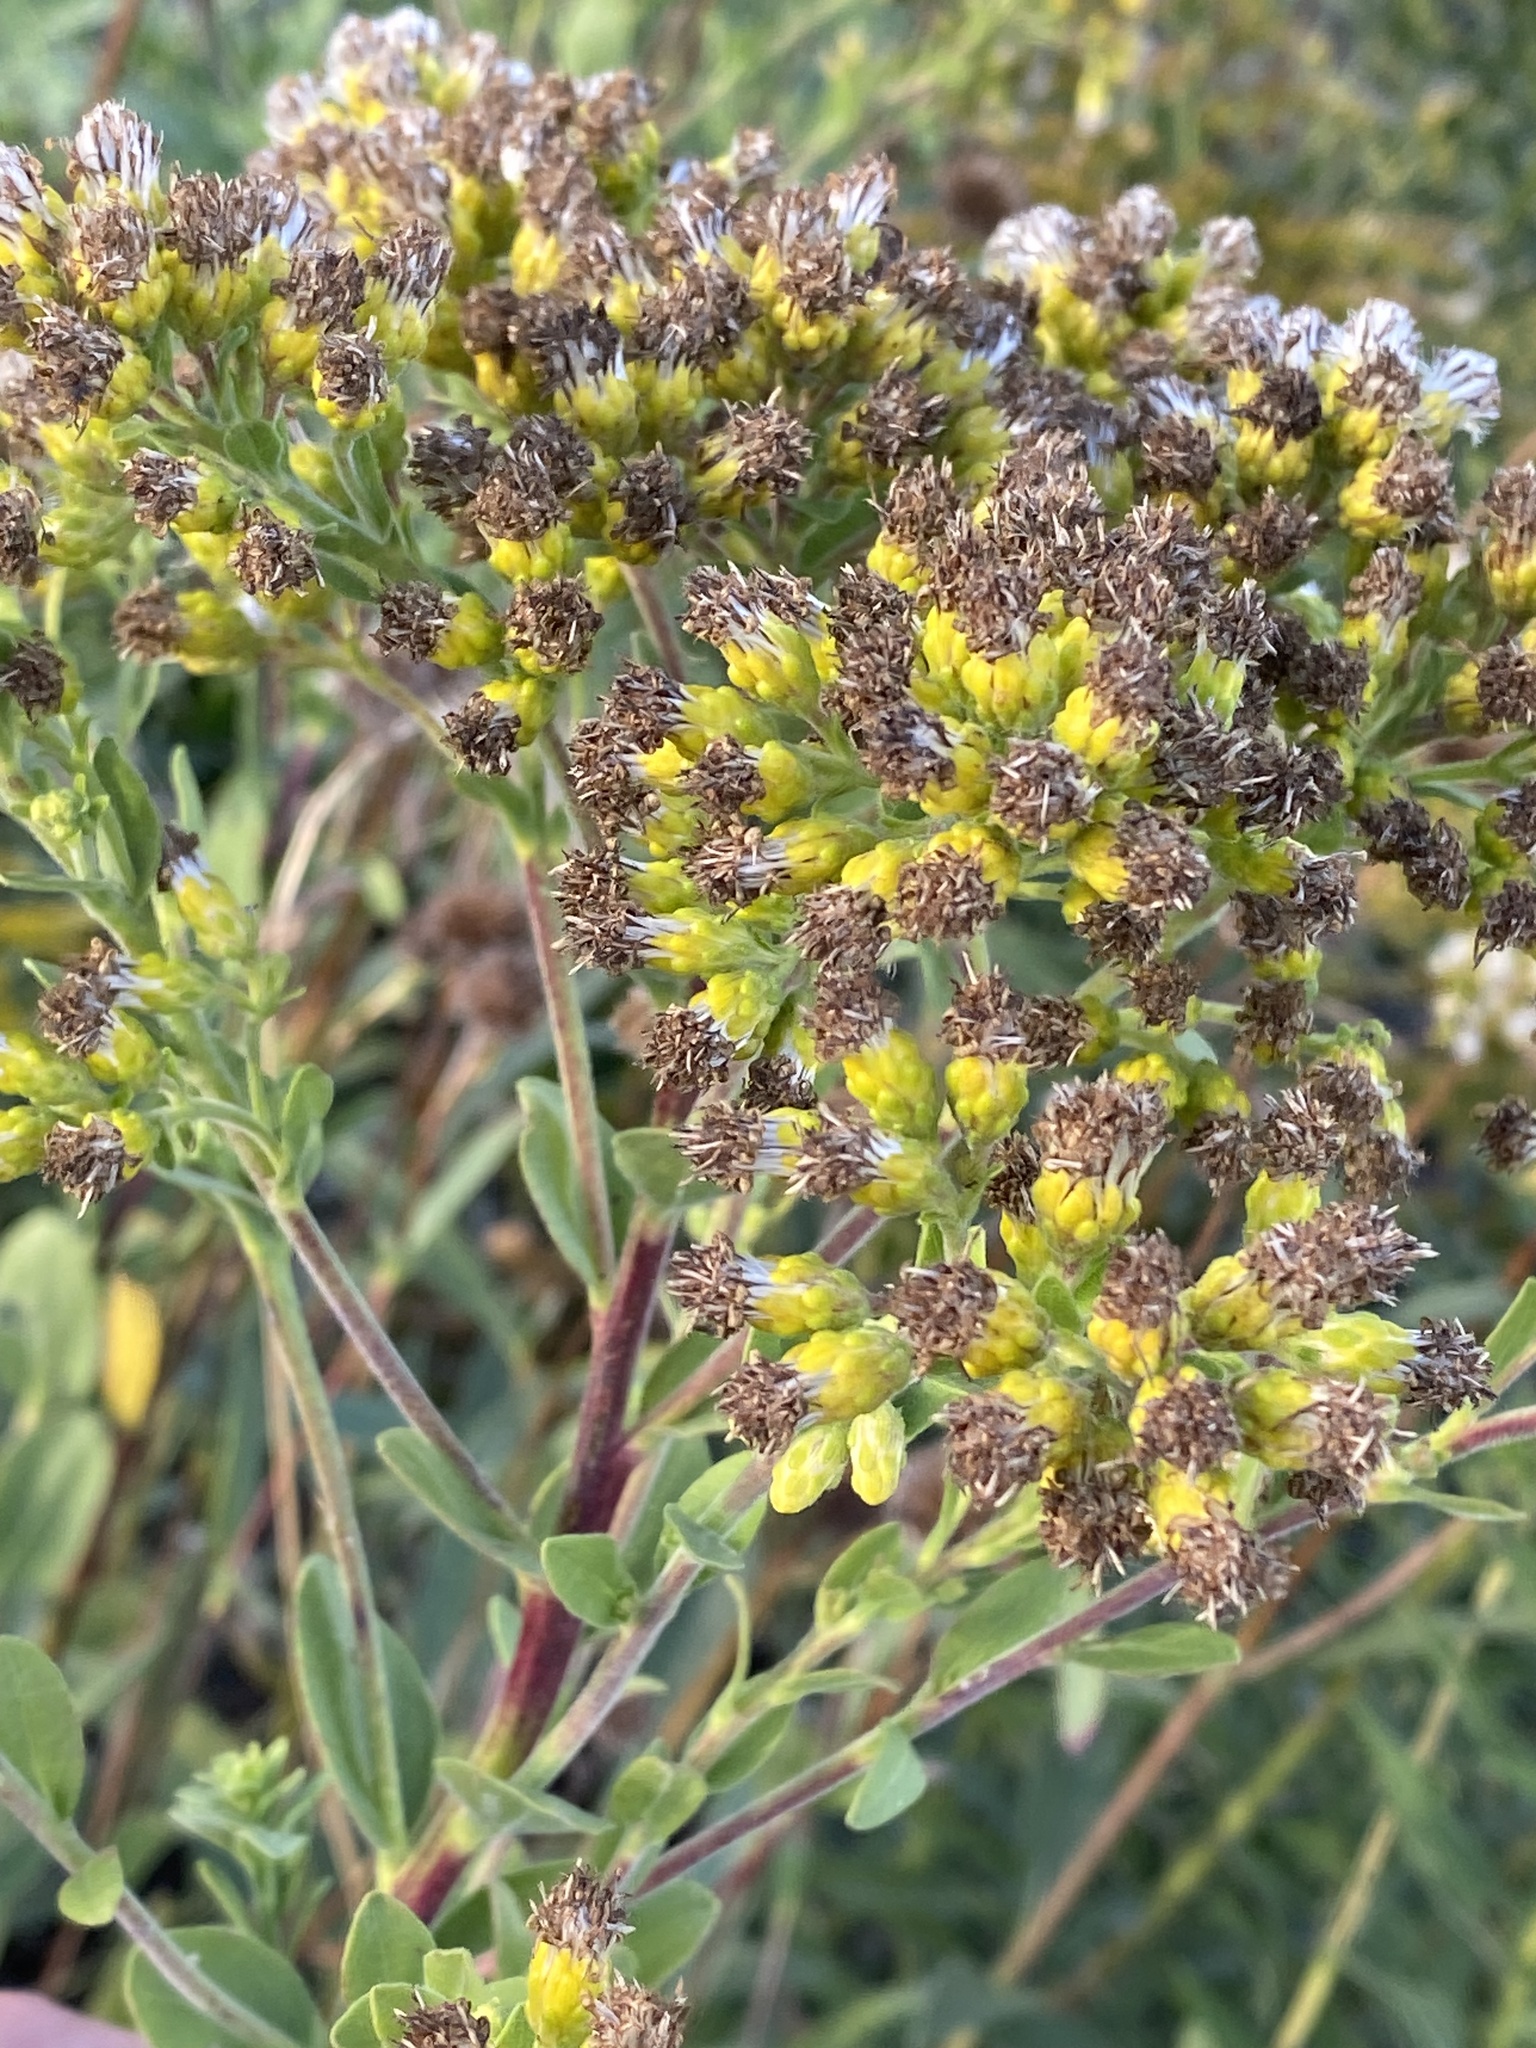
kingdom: Plantae
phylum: Tracheophyta
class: Magnoliopsida
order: Asterales
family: Asteraceae
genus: Solidago
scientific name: Solidago rigida
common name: Rigid goldenrod
